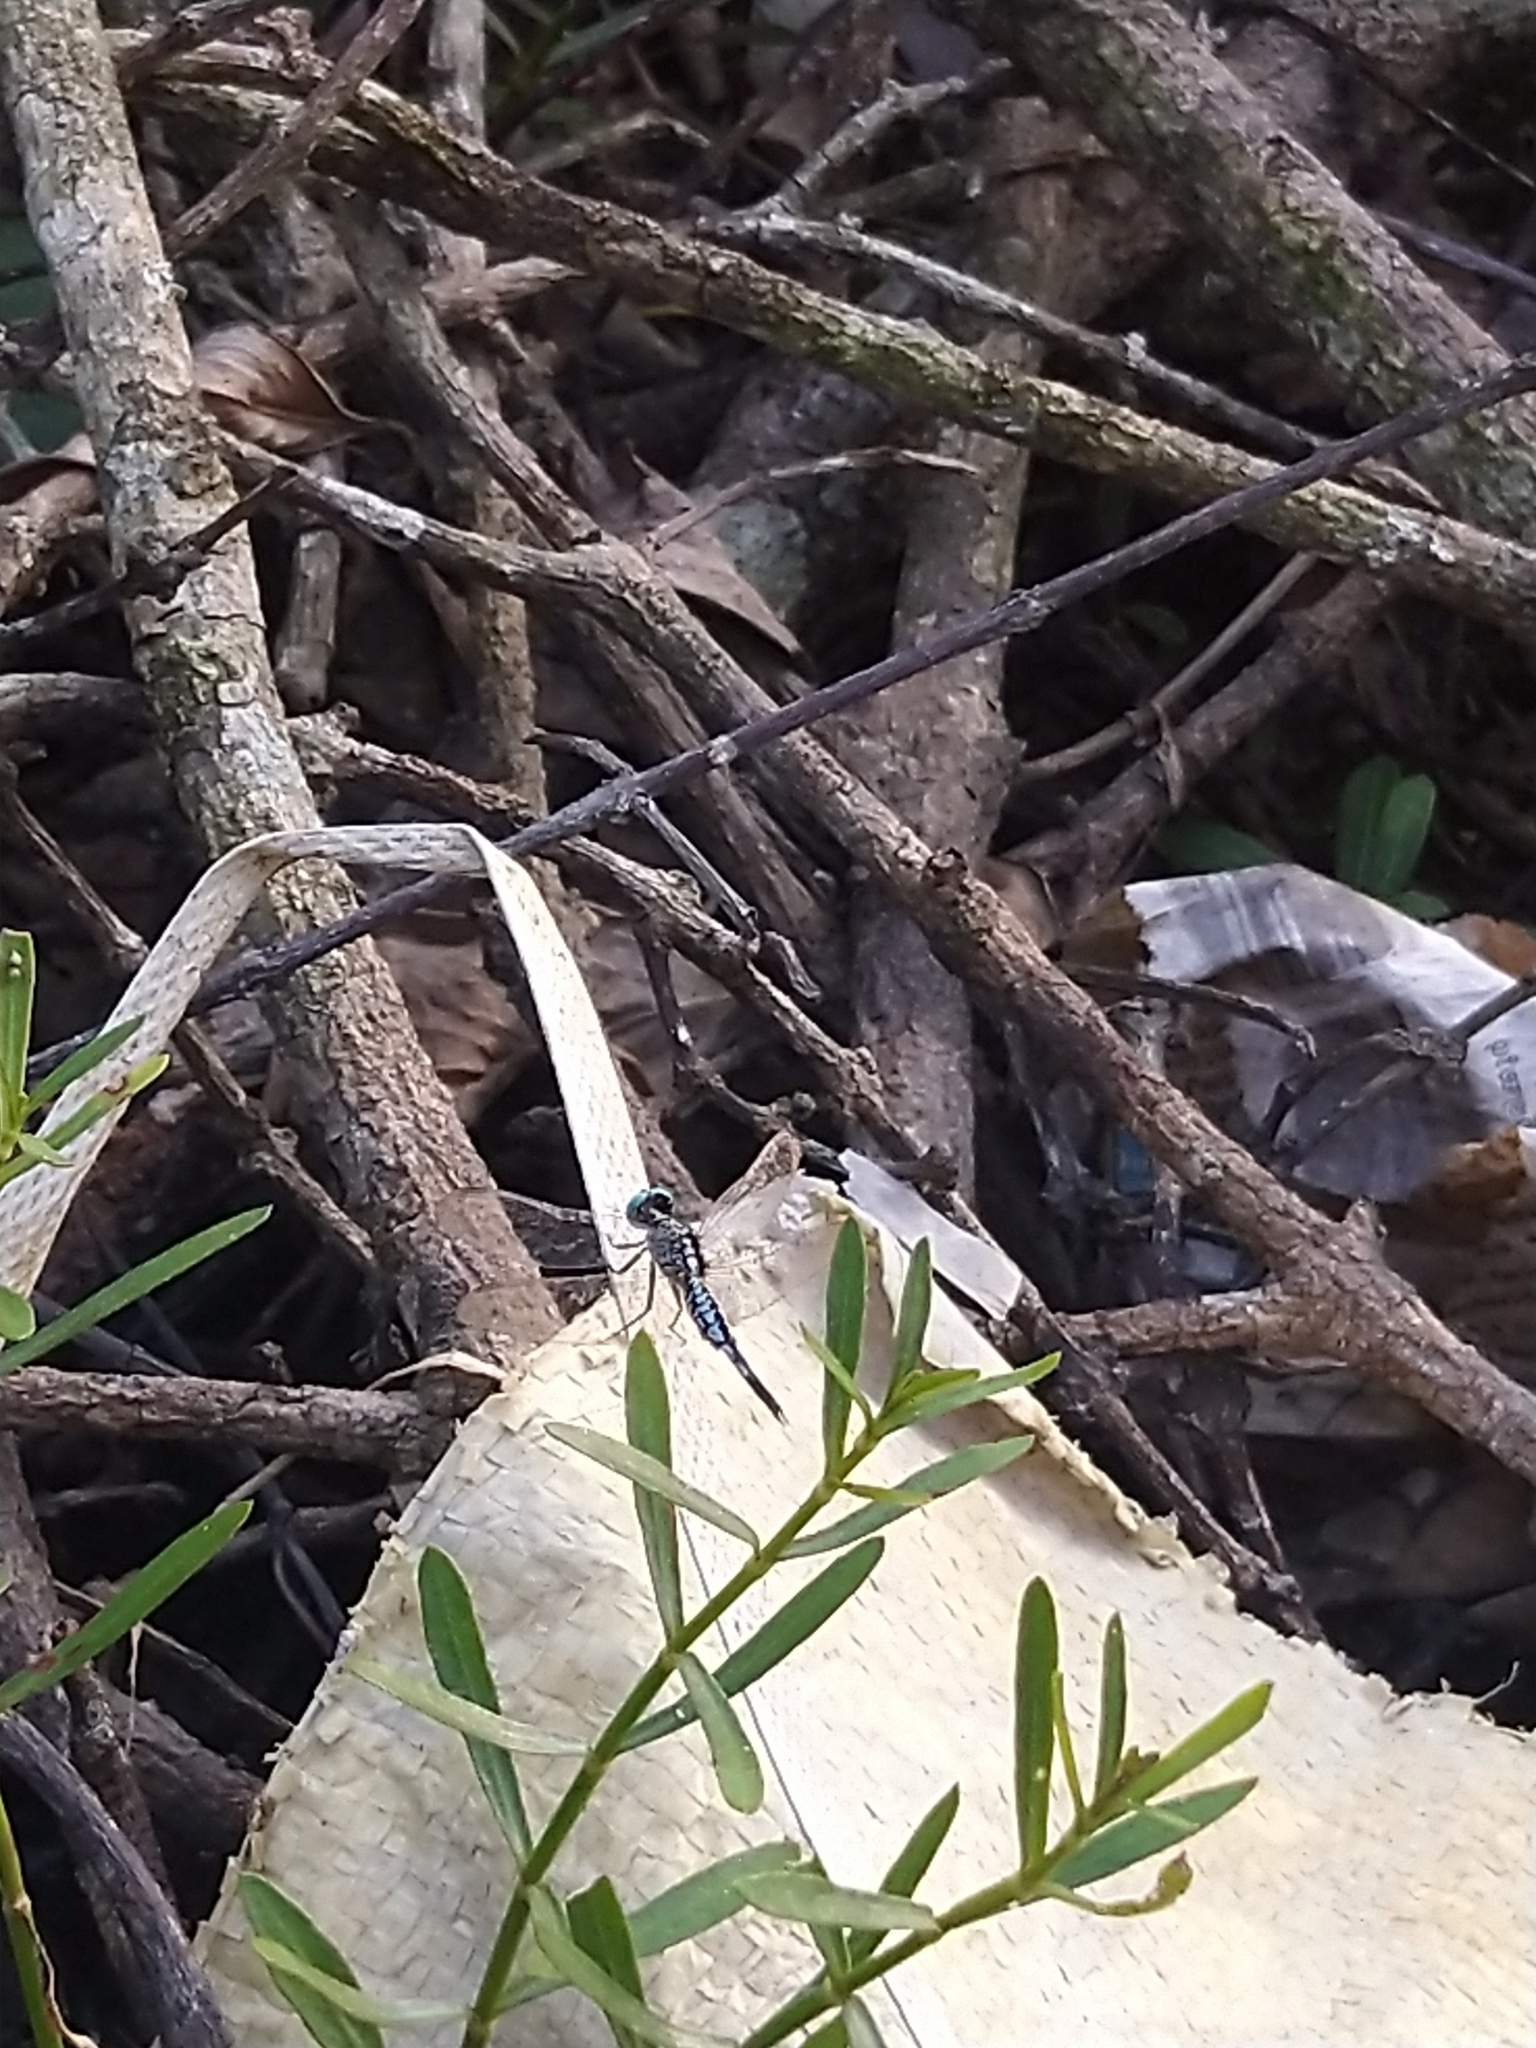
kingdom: Animalia
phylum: Arthropoda
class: Insecta
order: Odonata
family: Libellulidae
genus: Acisoma
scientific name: Acisoma panorpoides
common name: Asian pintail
